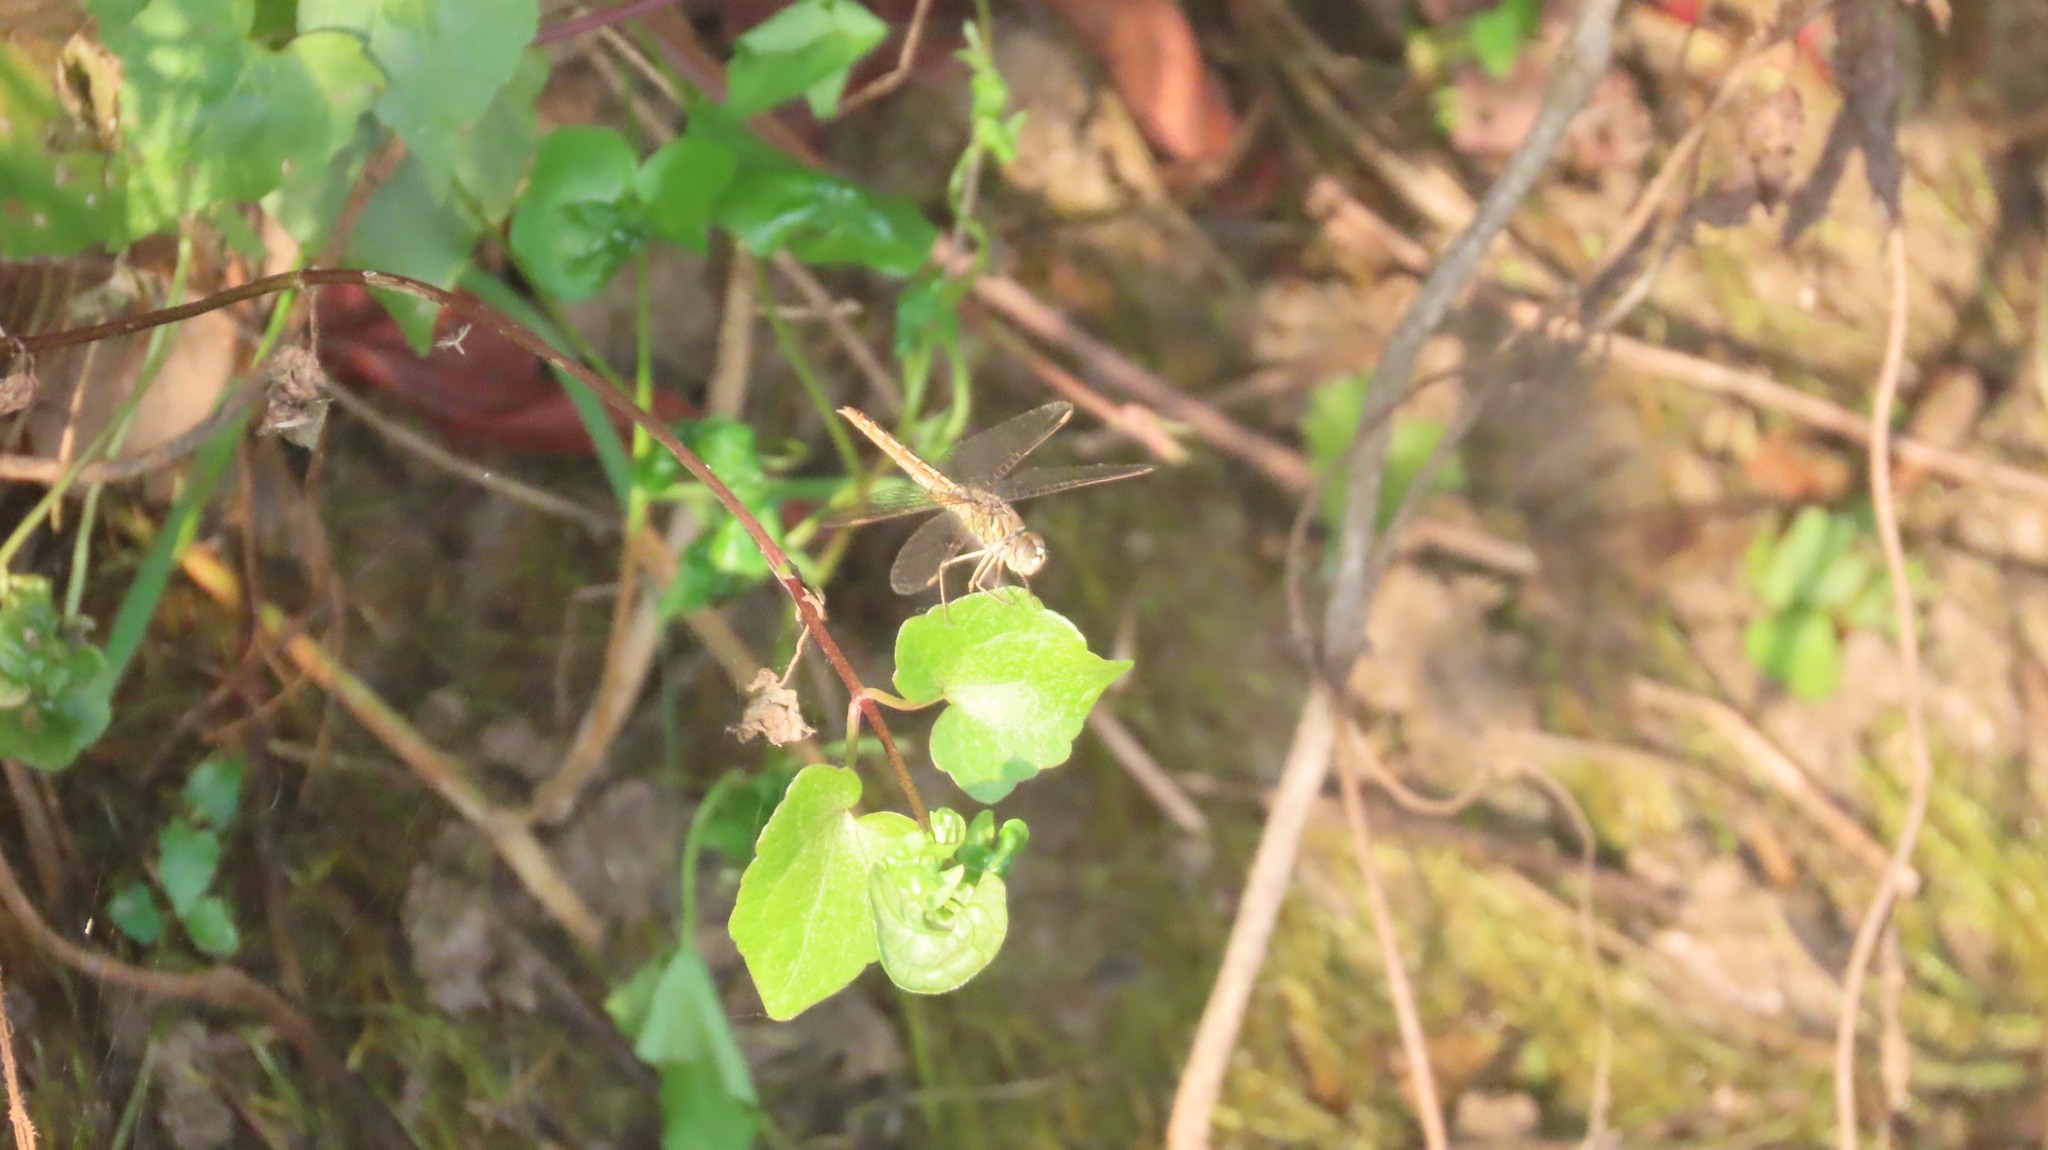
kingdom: Animalia
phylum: Arthropoda
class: Insecta
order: Odonata
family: Libellulidae
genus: Brachythemis
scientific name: Brachythemis contaminata
